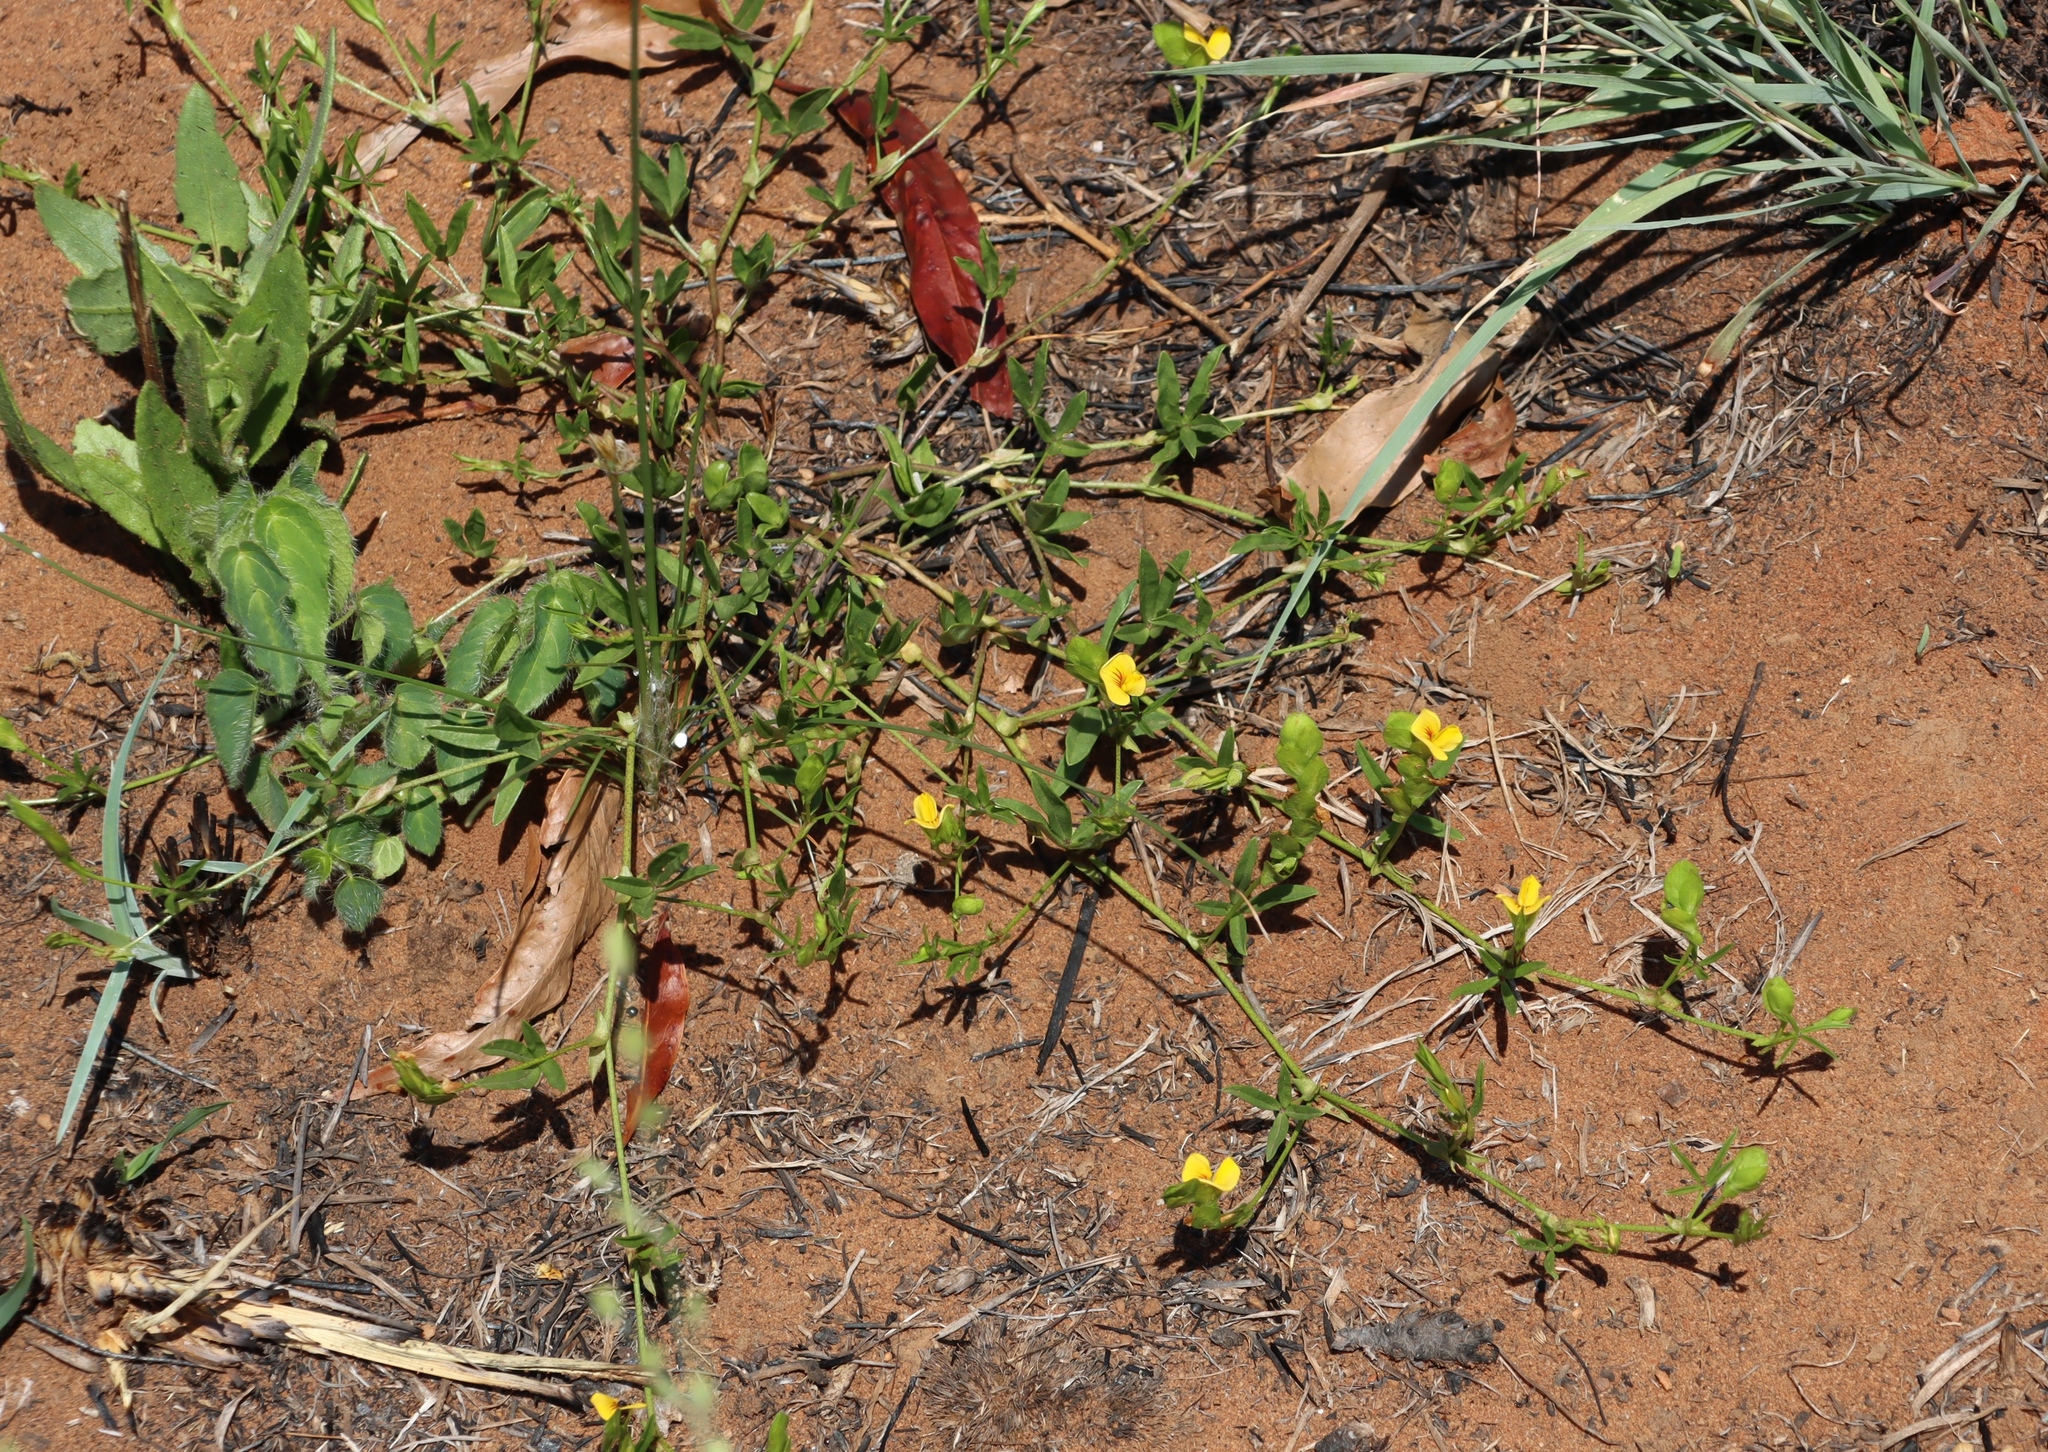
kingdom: Plantae
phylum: Tracheophyta
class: Magnoliopsida
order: Fabales
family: Fabaceae
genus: Zornia
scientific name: Zornia capensis
